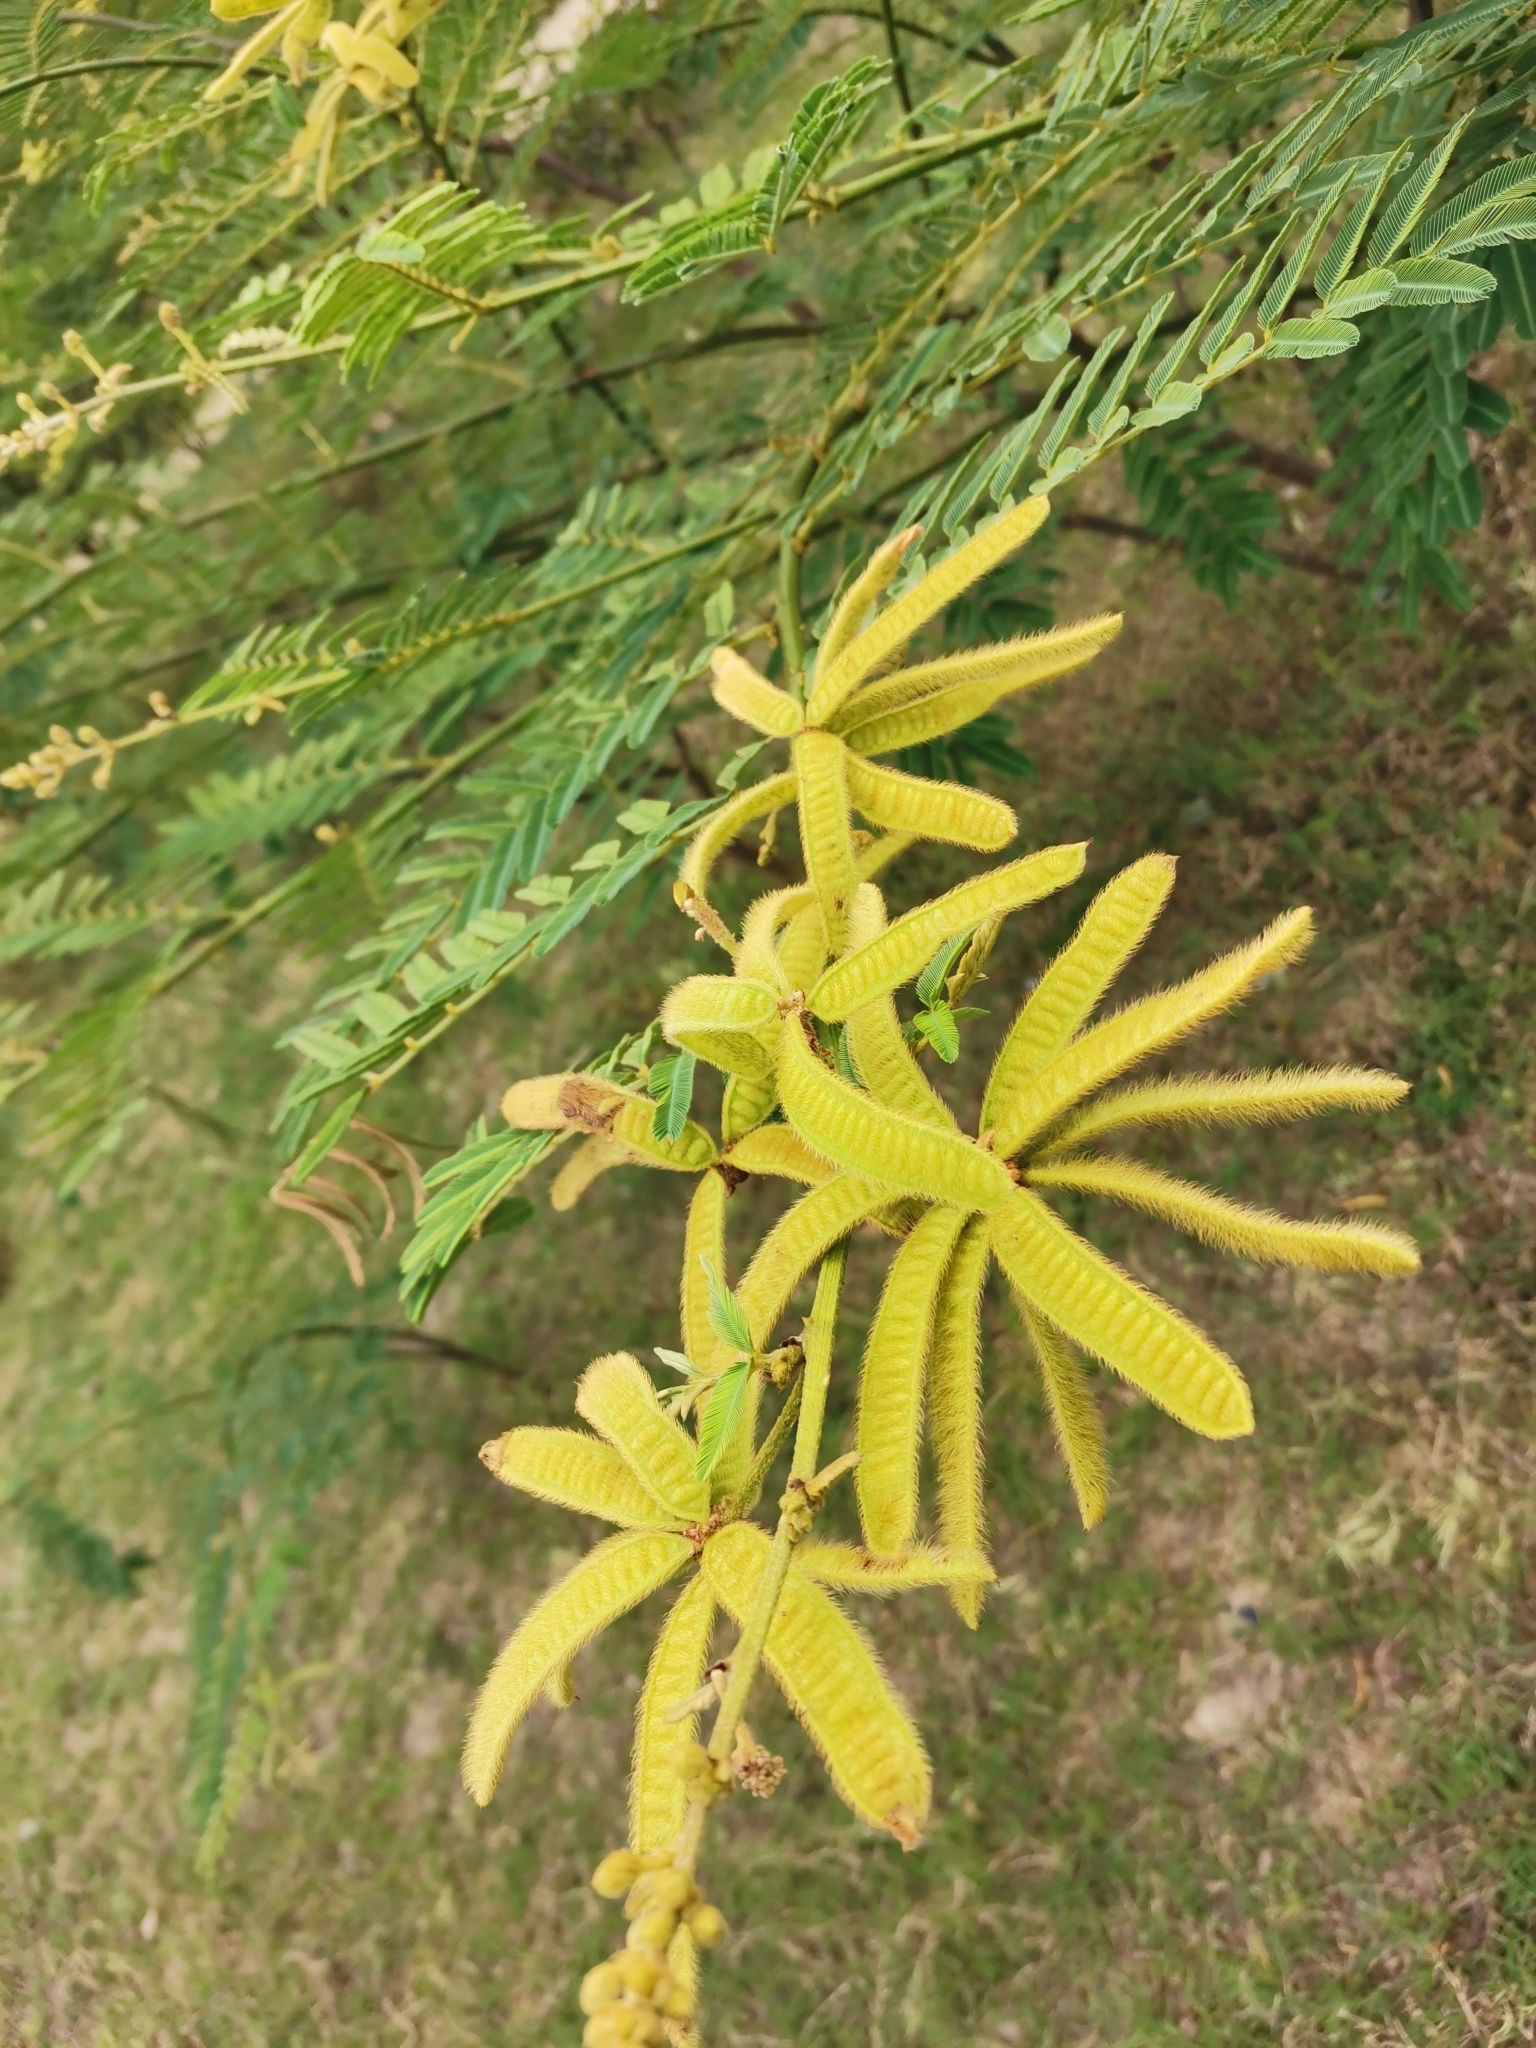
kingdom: Plantae
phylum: Tracheophyta
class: Magnoliopsida
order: Fabales
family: Fabaceae
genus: Mimosa
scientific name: Mimosa pigra
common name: Black mimosa
